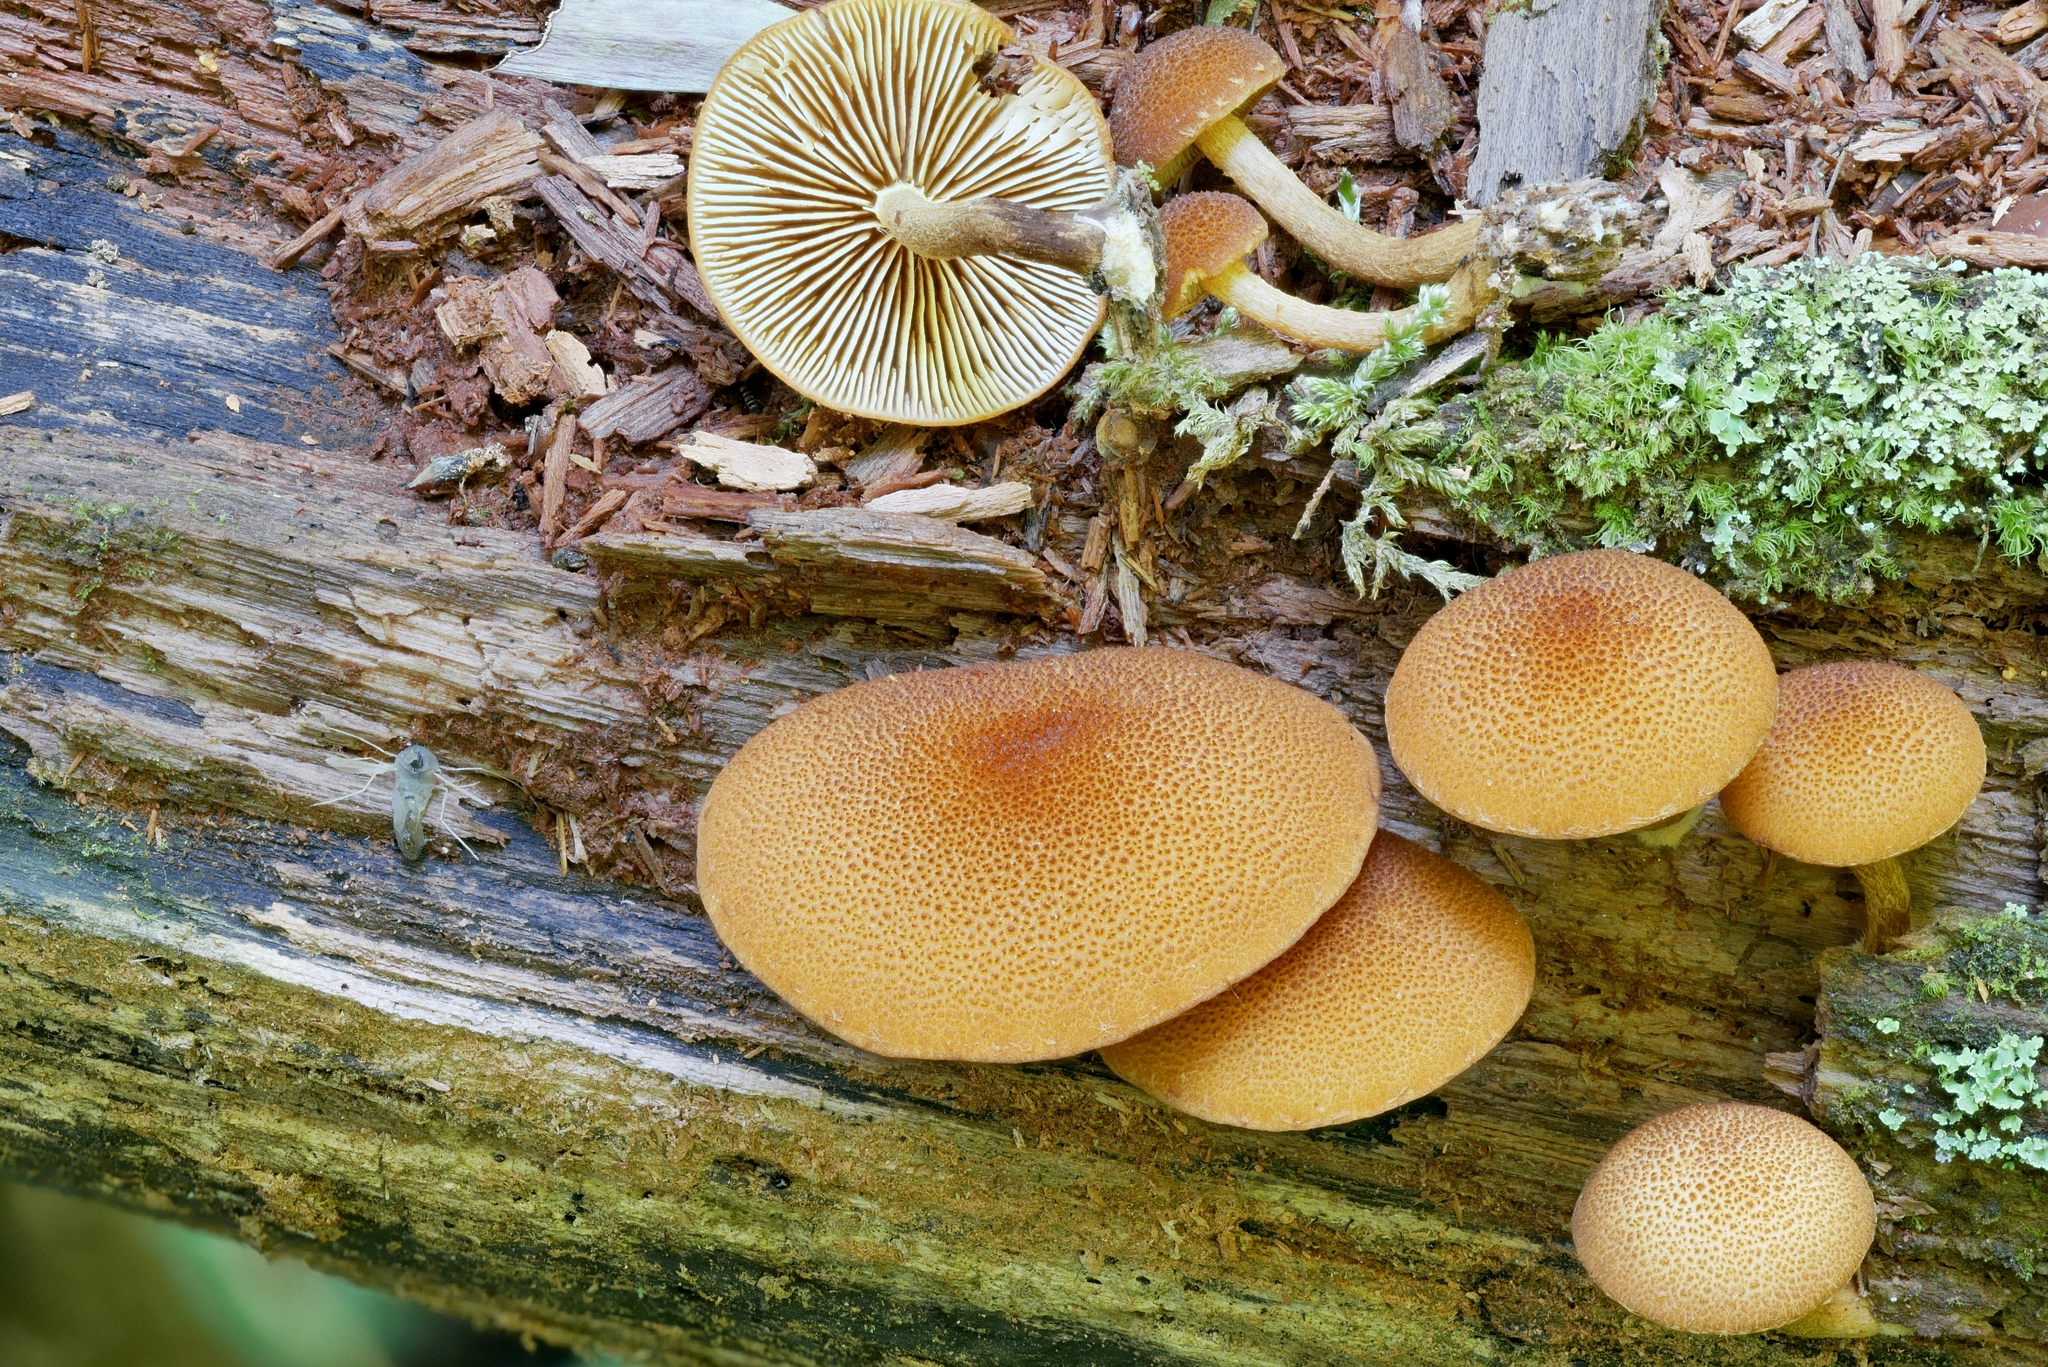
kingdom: Fungi
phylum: Basidiomycota
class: Agaricomycetes
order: Agaricales
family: Tubariaceae
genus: Phaeomarasmius
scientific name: Phaeomarasmius proximans
